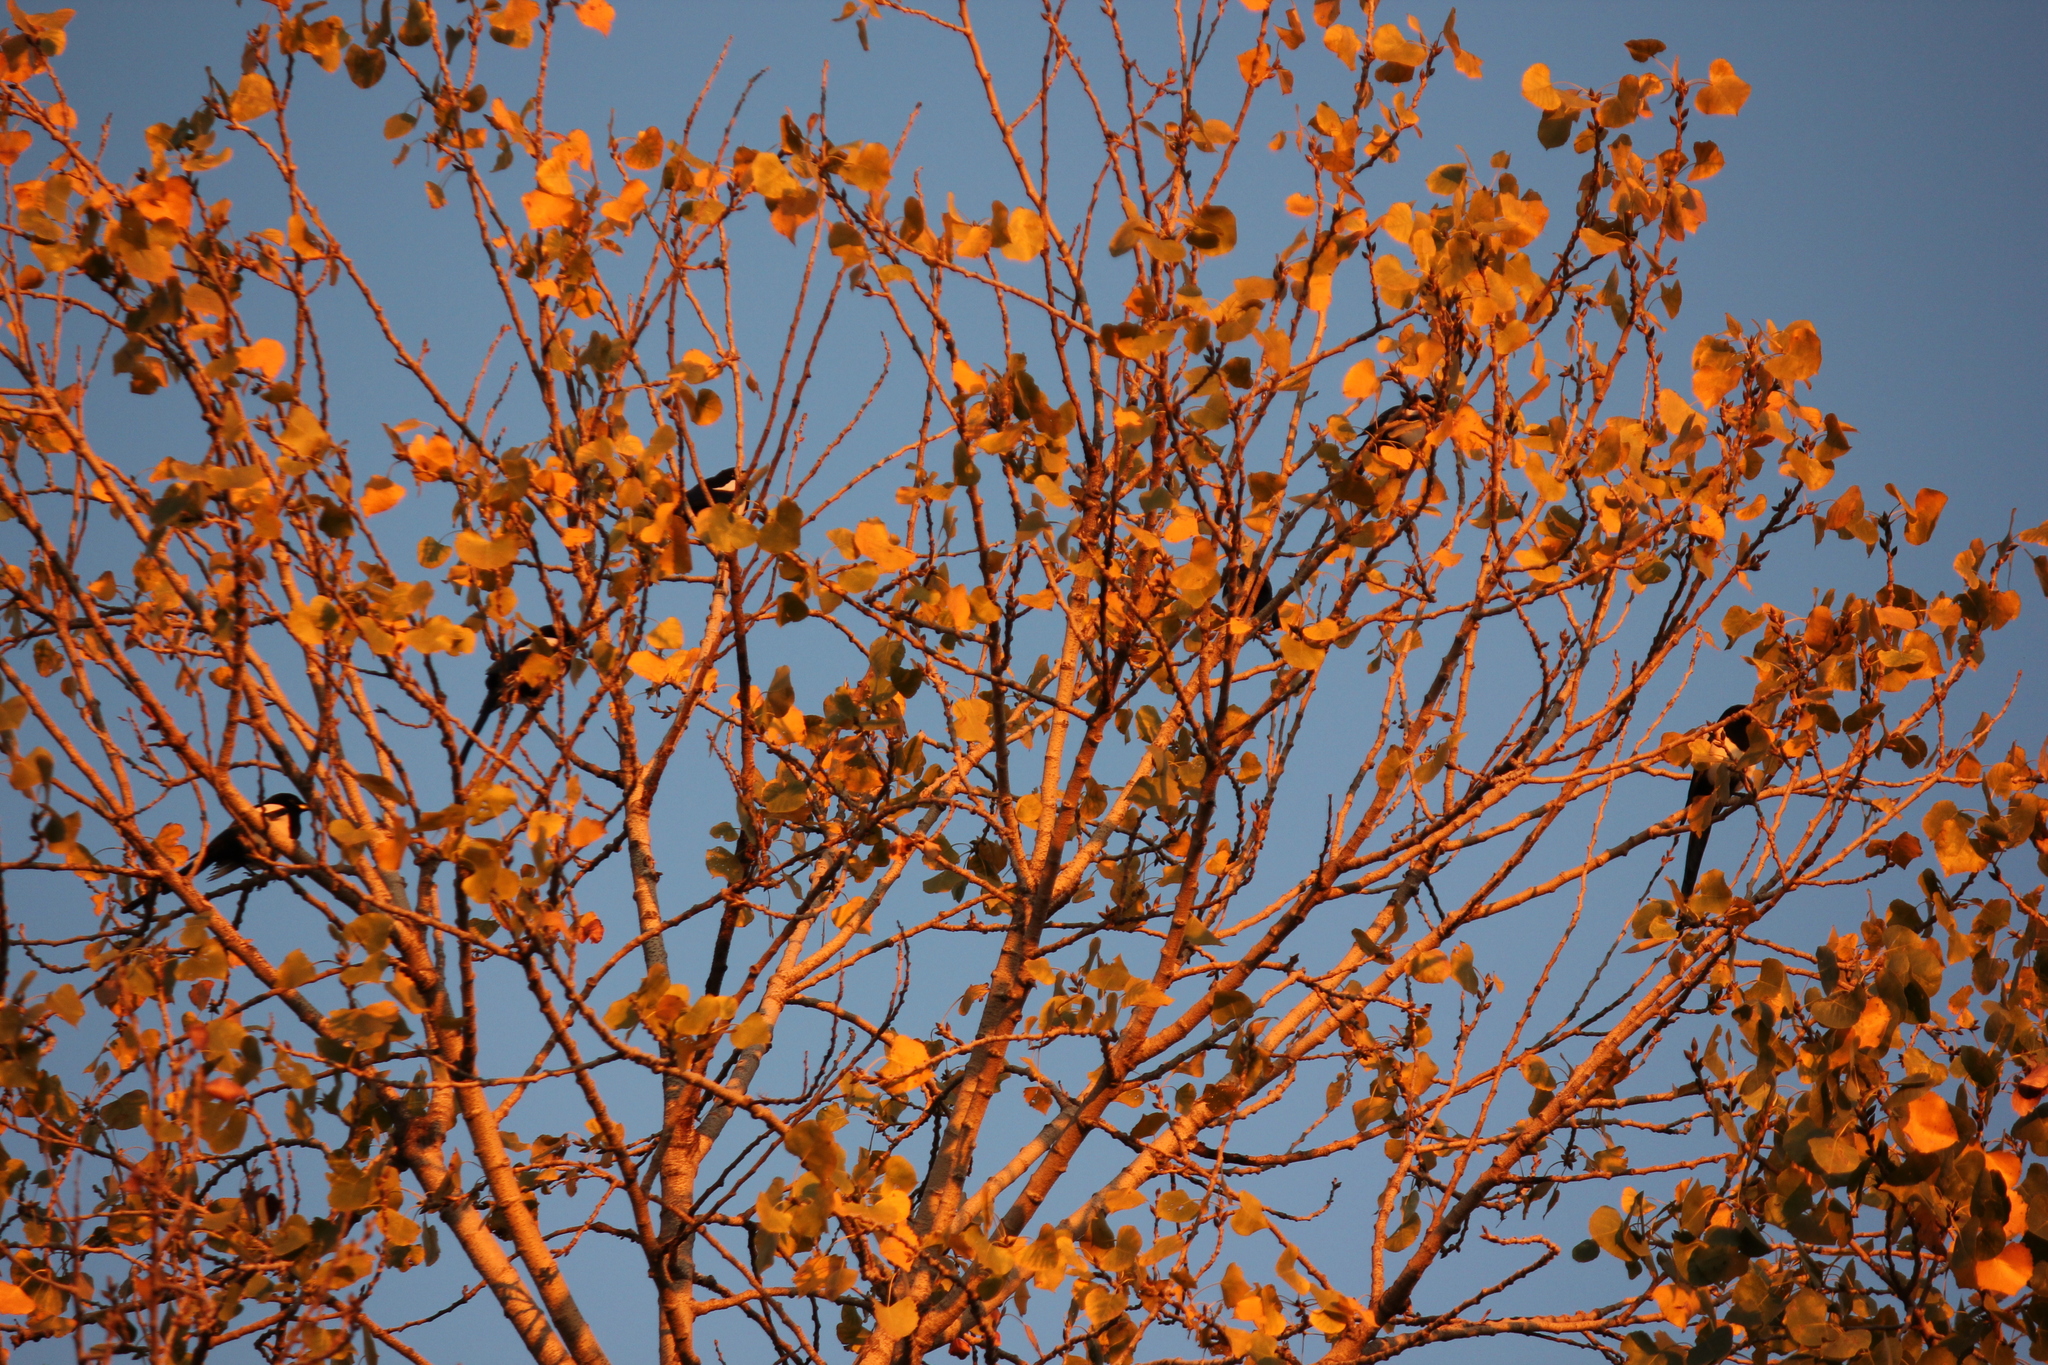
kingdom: Animalia
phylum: Chordata
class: Aves
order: Passeriformes
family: Corvidae
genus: Pica
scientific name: Pica nuttalli
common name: Yellow-billed magpie
